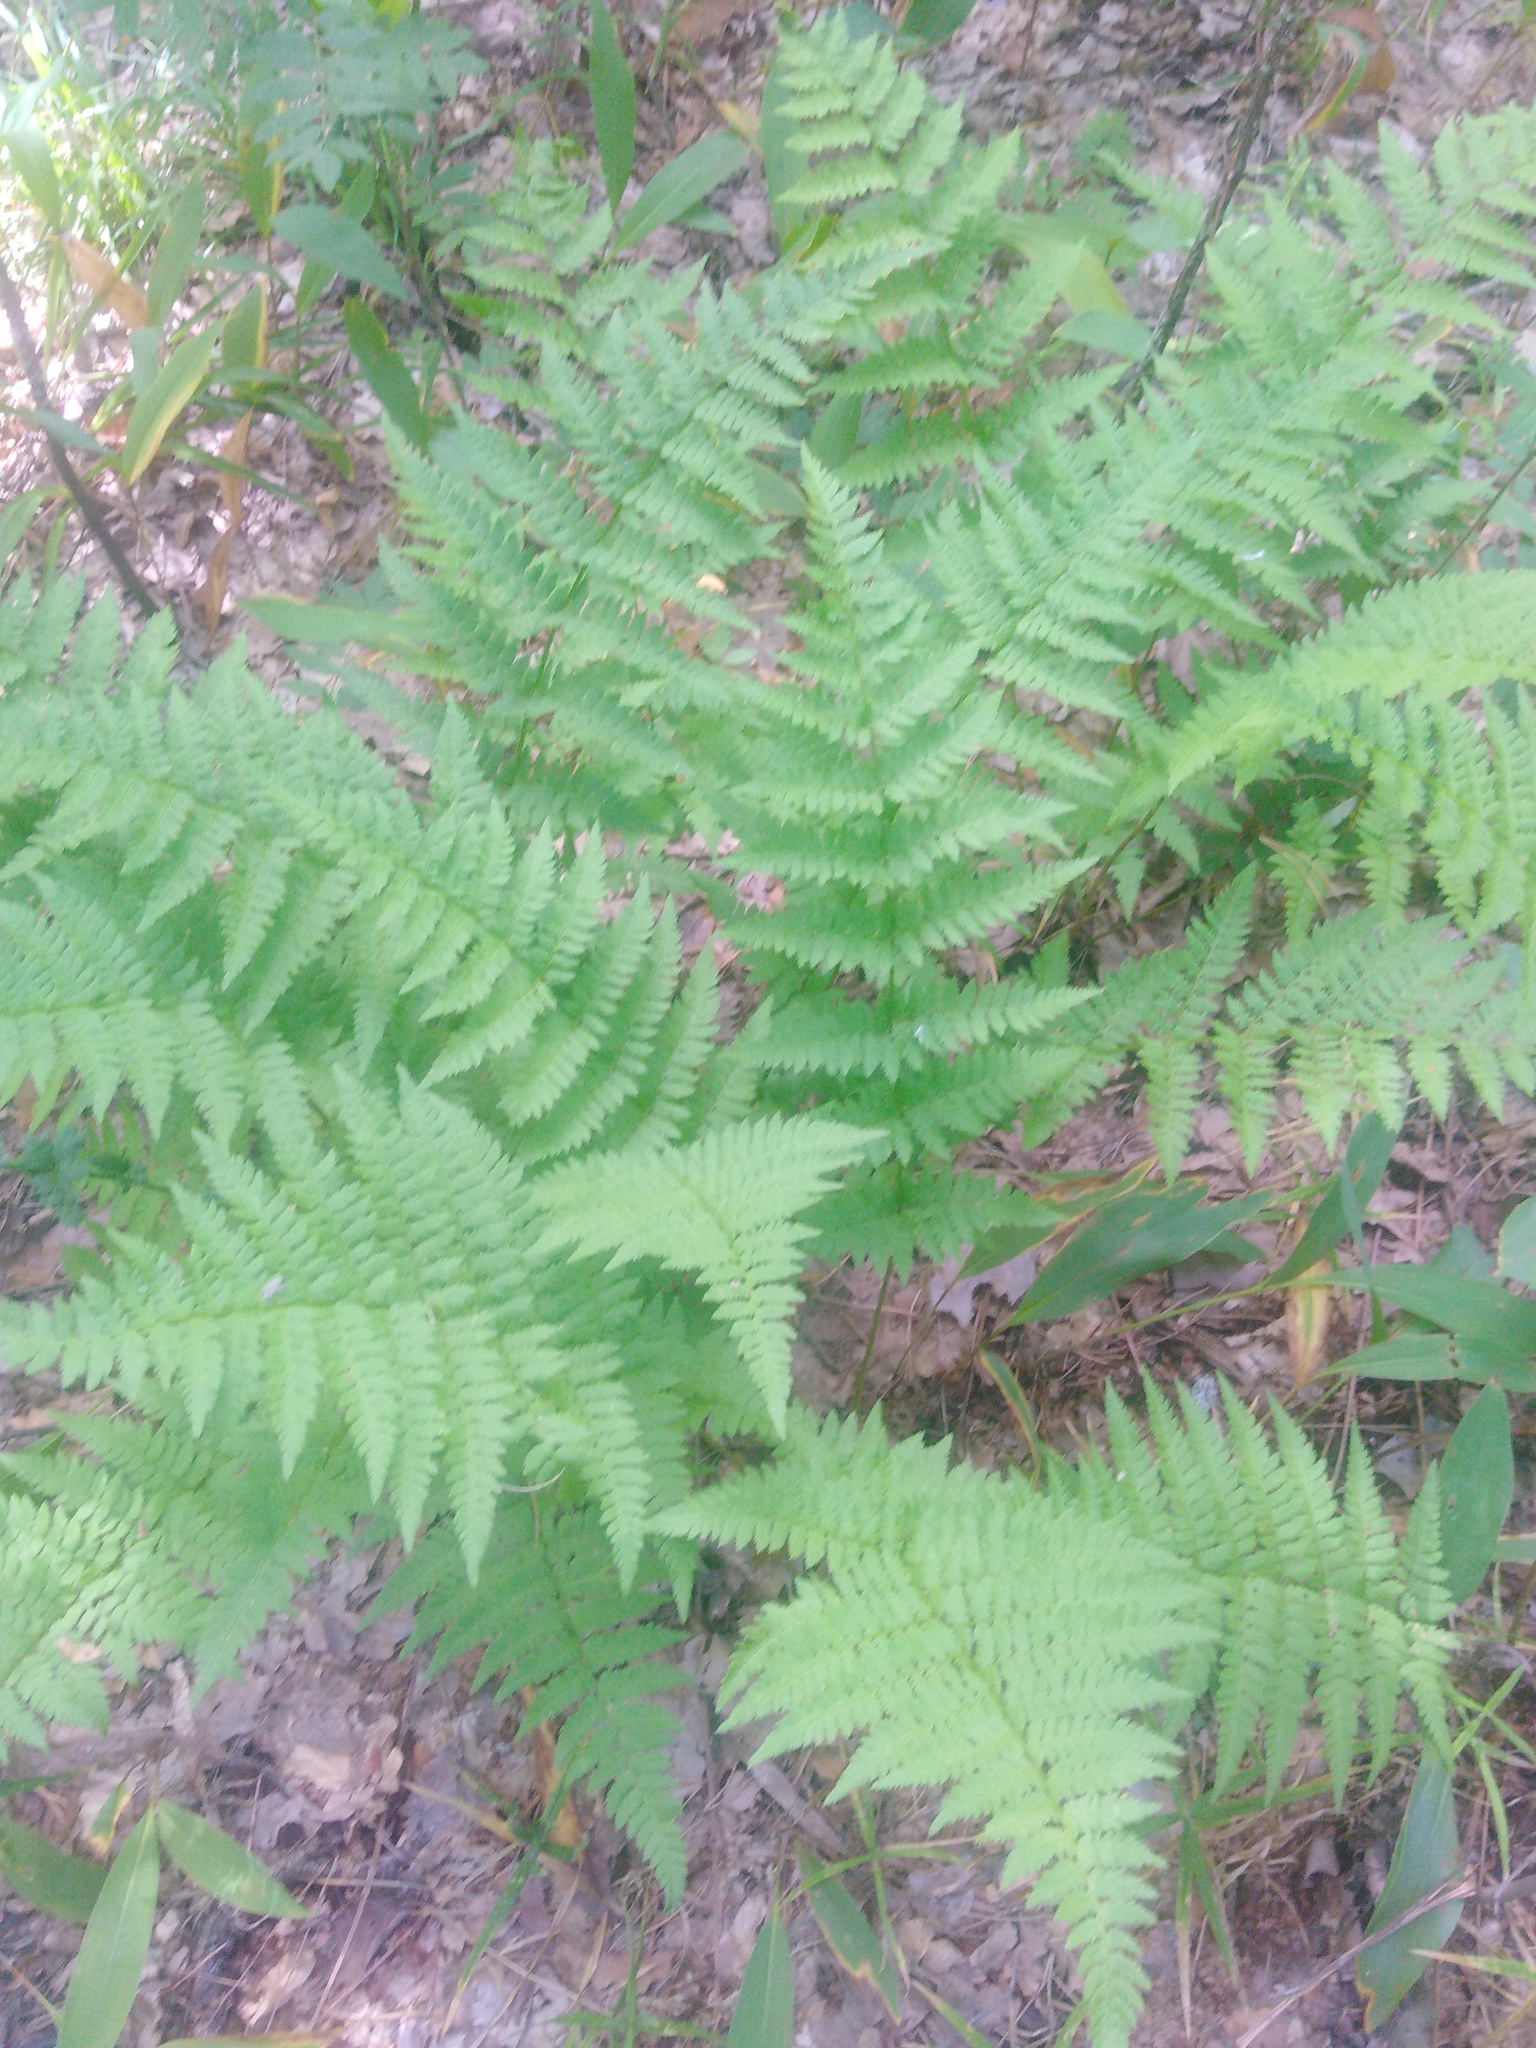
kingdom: Plantae
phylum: Tracheophyta
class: Polypodiopsida
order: Polypodiales
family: Dryopteridaceae
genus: Dryopteris
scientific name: Dryopteris carthusiana
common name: Narrow buckler-fern
